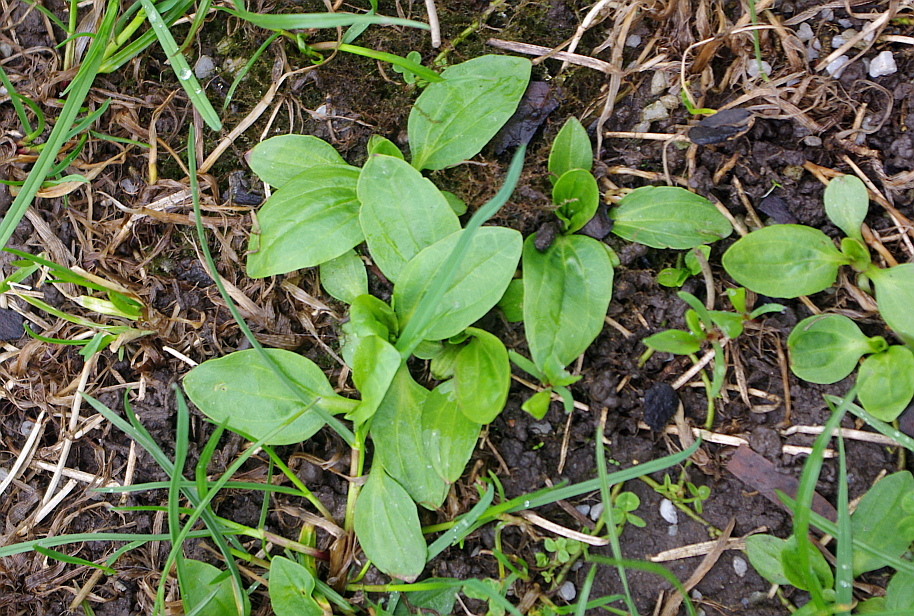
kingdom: Plantae
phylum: Tracheophyta
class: Magnoliopsida
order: Lamiales
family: Plantaginaceae
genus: Plantago
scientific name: Plantago major
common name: Common plantain
